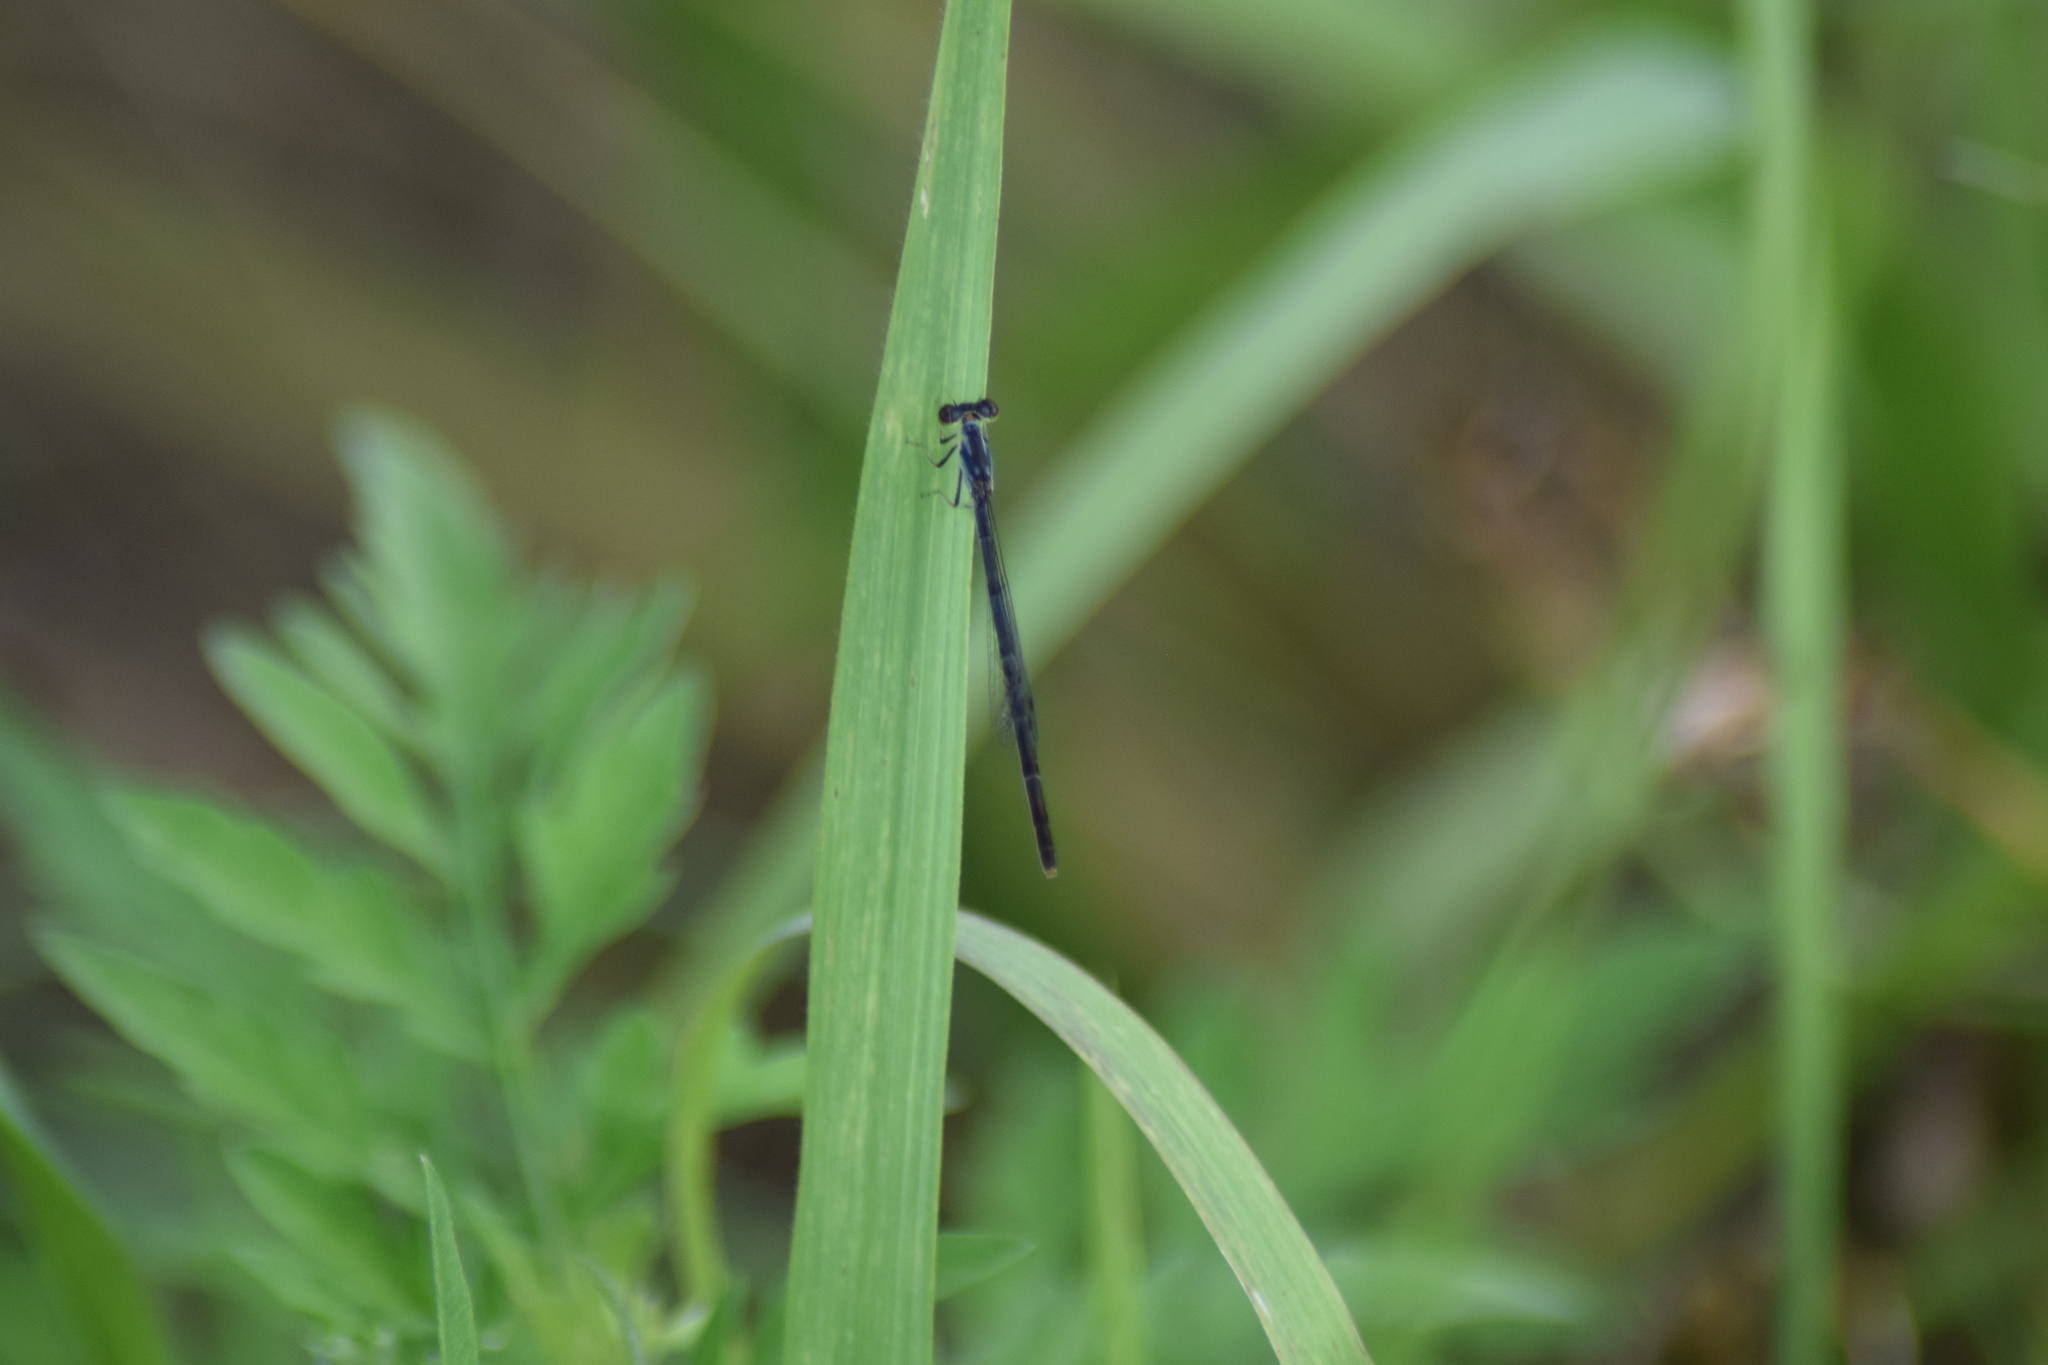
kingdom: Animalia
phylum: Arthropoda
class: Insecta
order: Odonata
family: Coenagrionidae
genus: Ischnura
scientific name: Ischnura posita
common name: Fragile forktail
